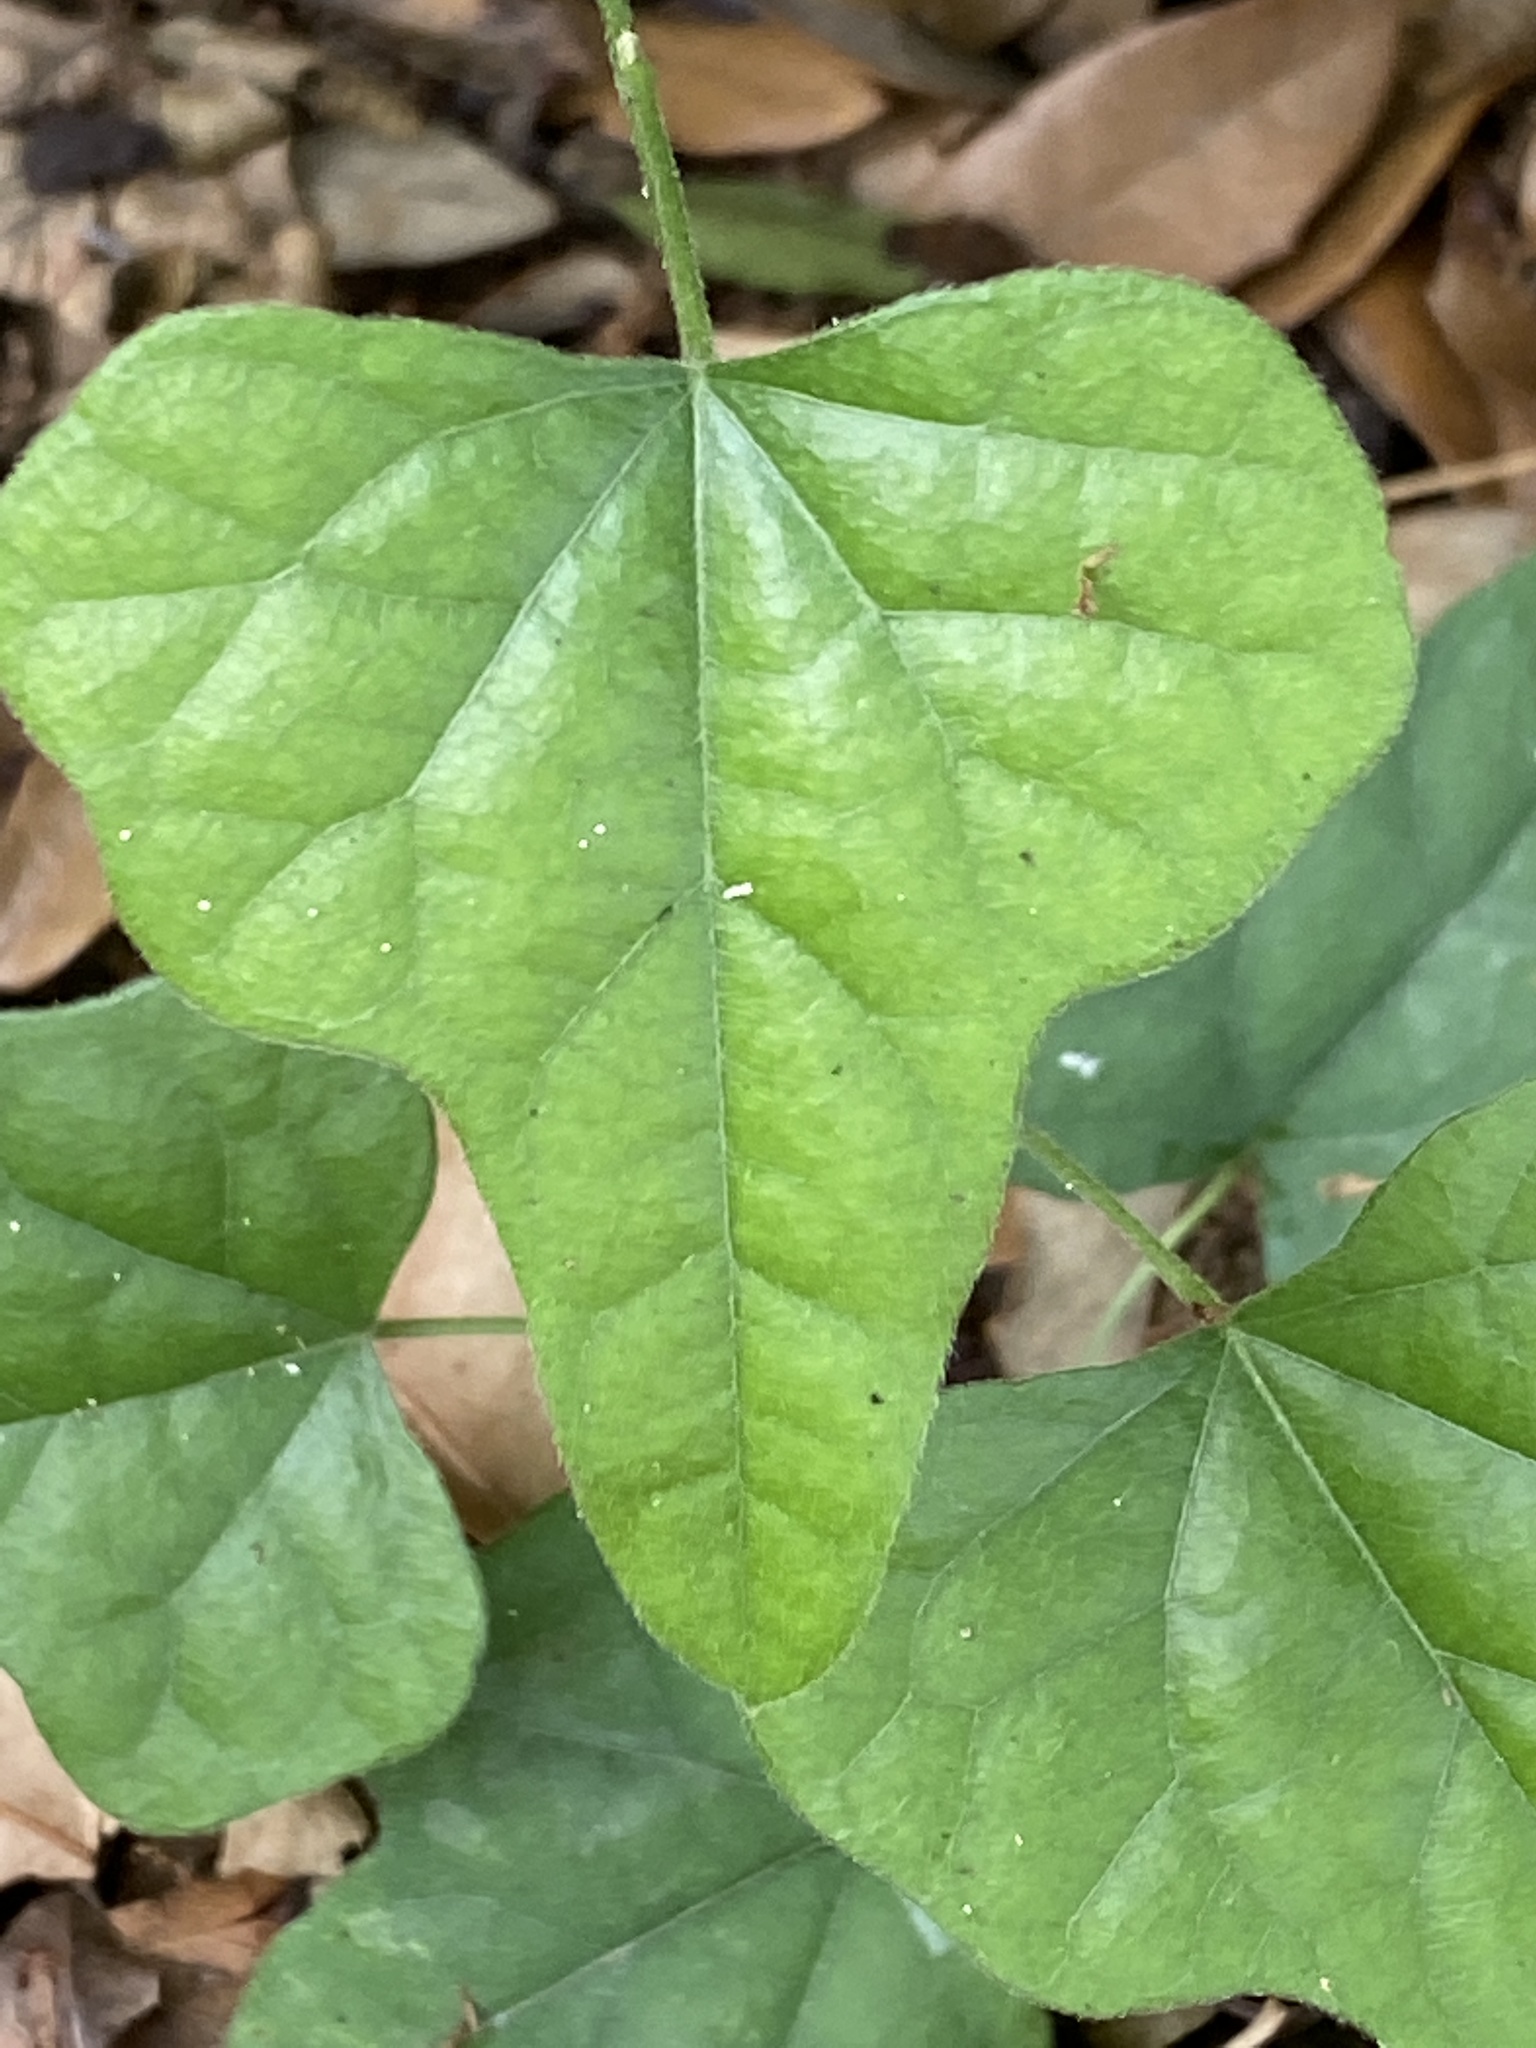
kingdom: Plantae
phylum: Tracheophyta
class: Magnoliopsida
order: Ranunculales
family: Menispermaceae
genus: Cocculus
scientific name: Cocculus carolinus
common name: Carolina moonseed
